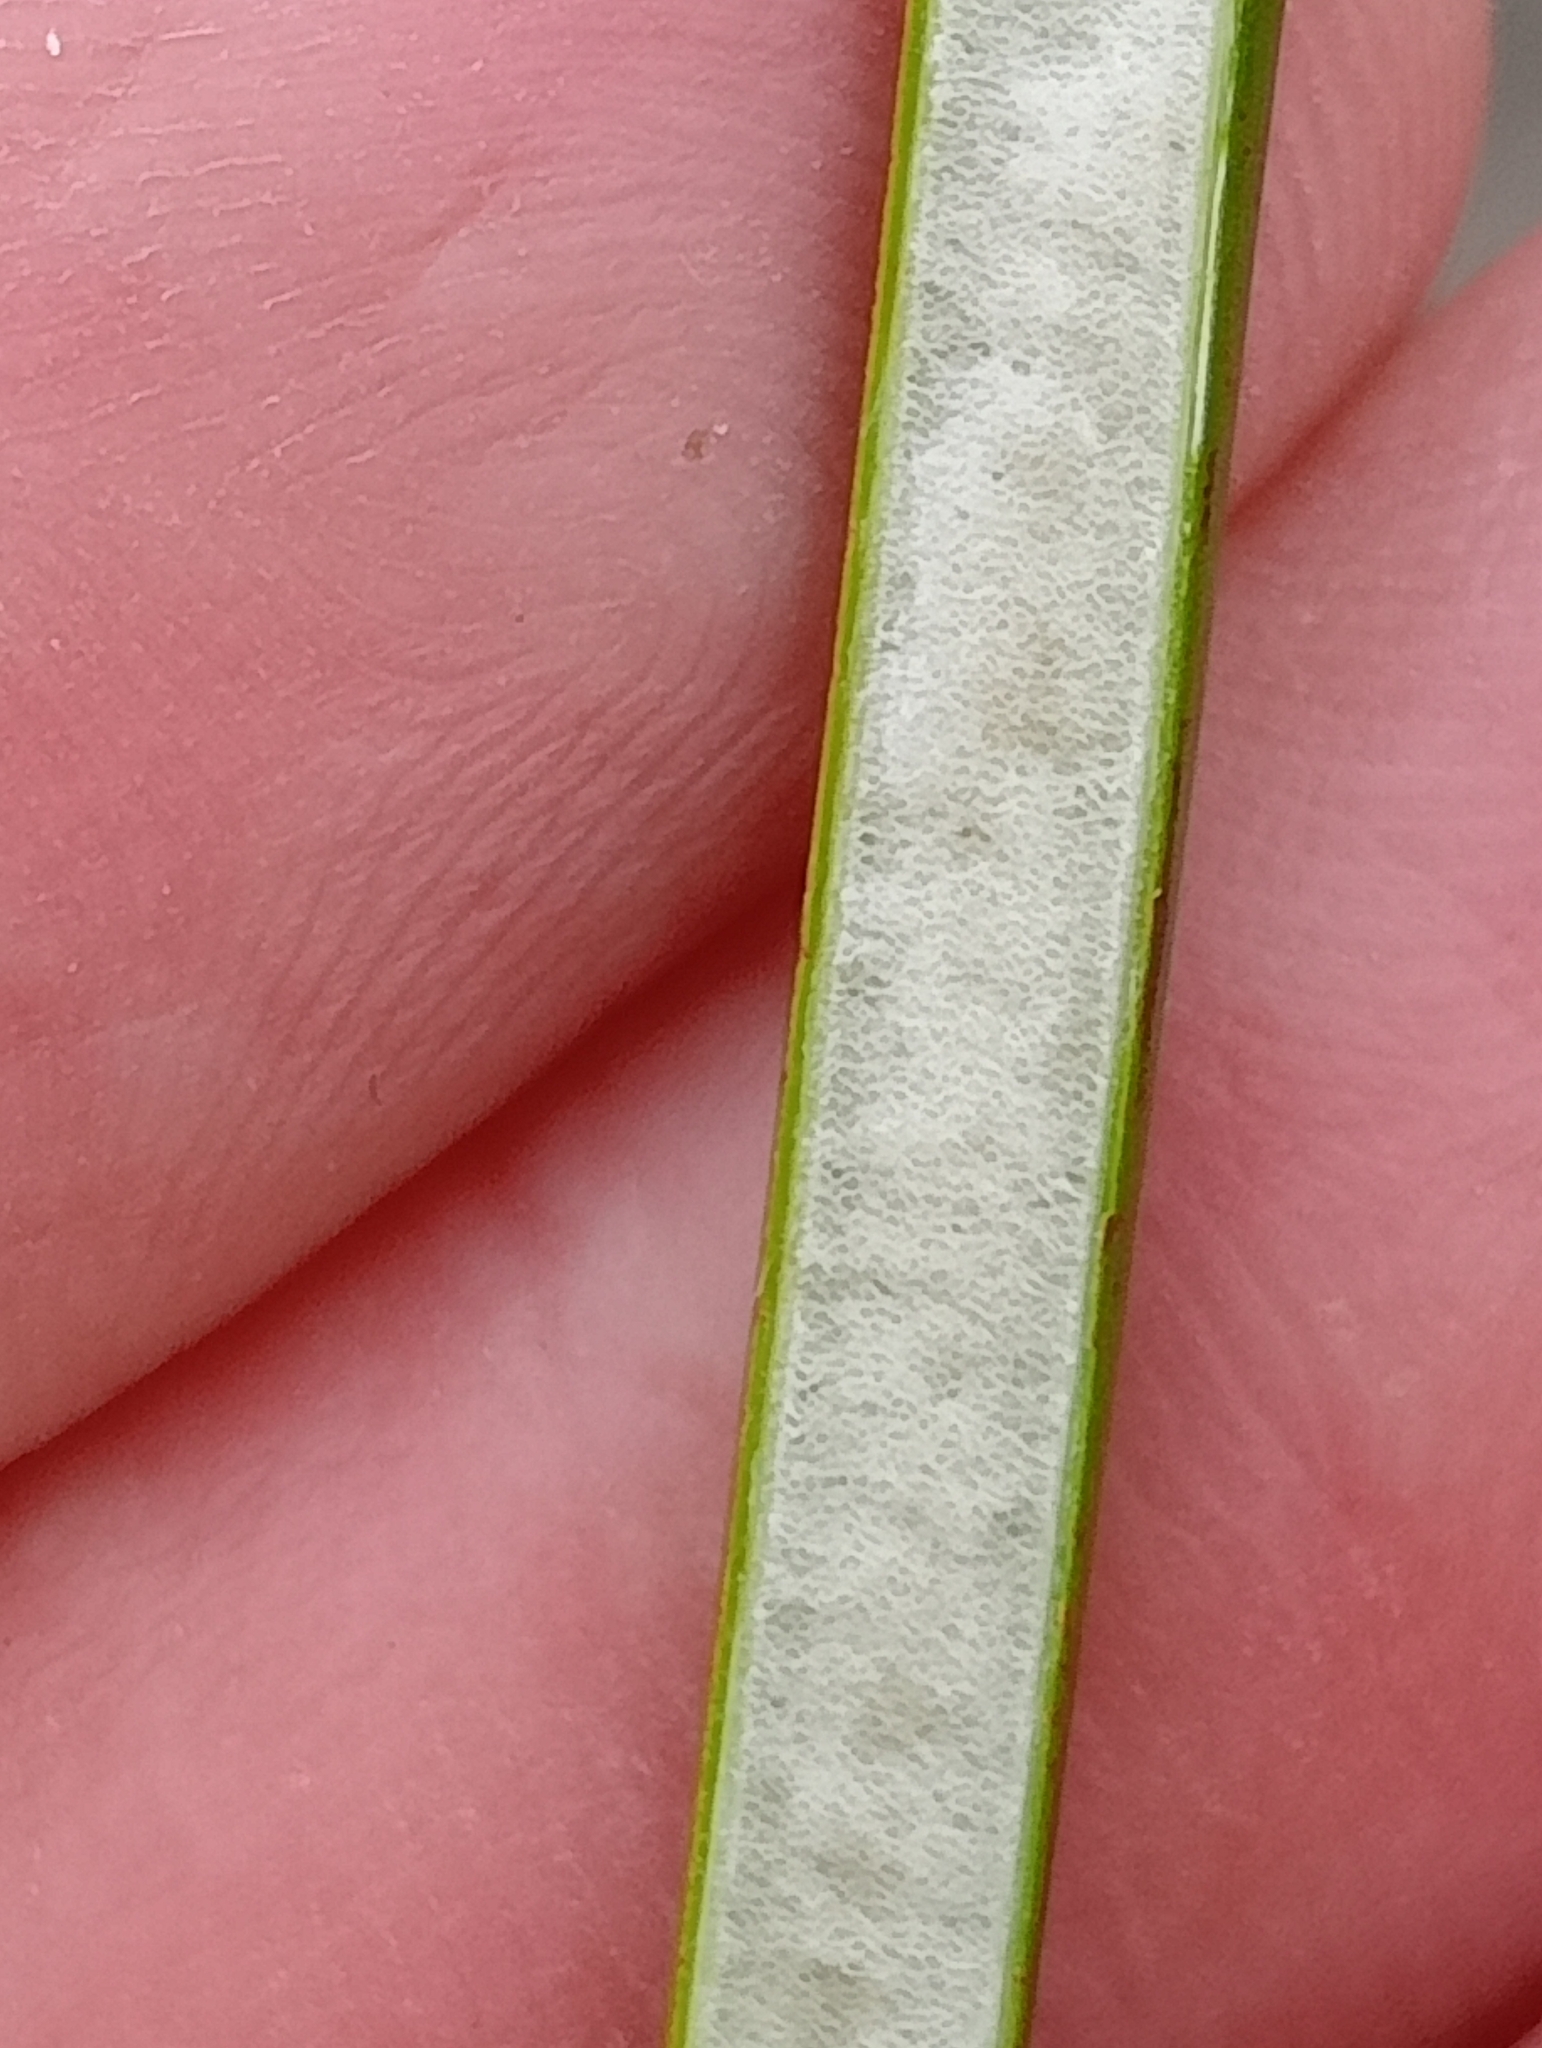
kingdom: Plantae
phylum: Tracheophyta
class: Liliopsida
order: Poales
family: Juncaceae
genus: Juncus
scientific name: Juncus pallidus
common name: Great soft-rush
